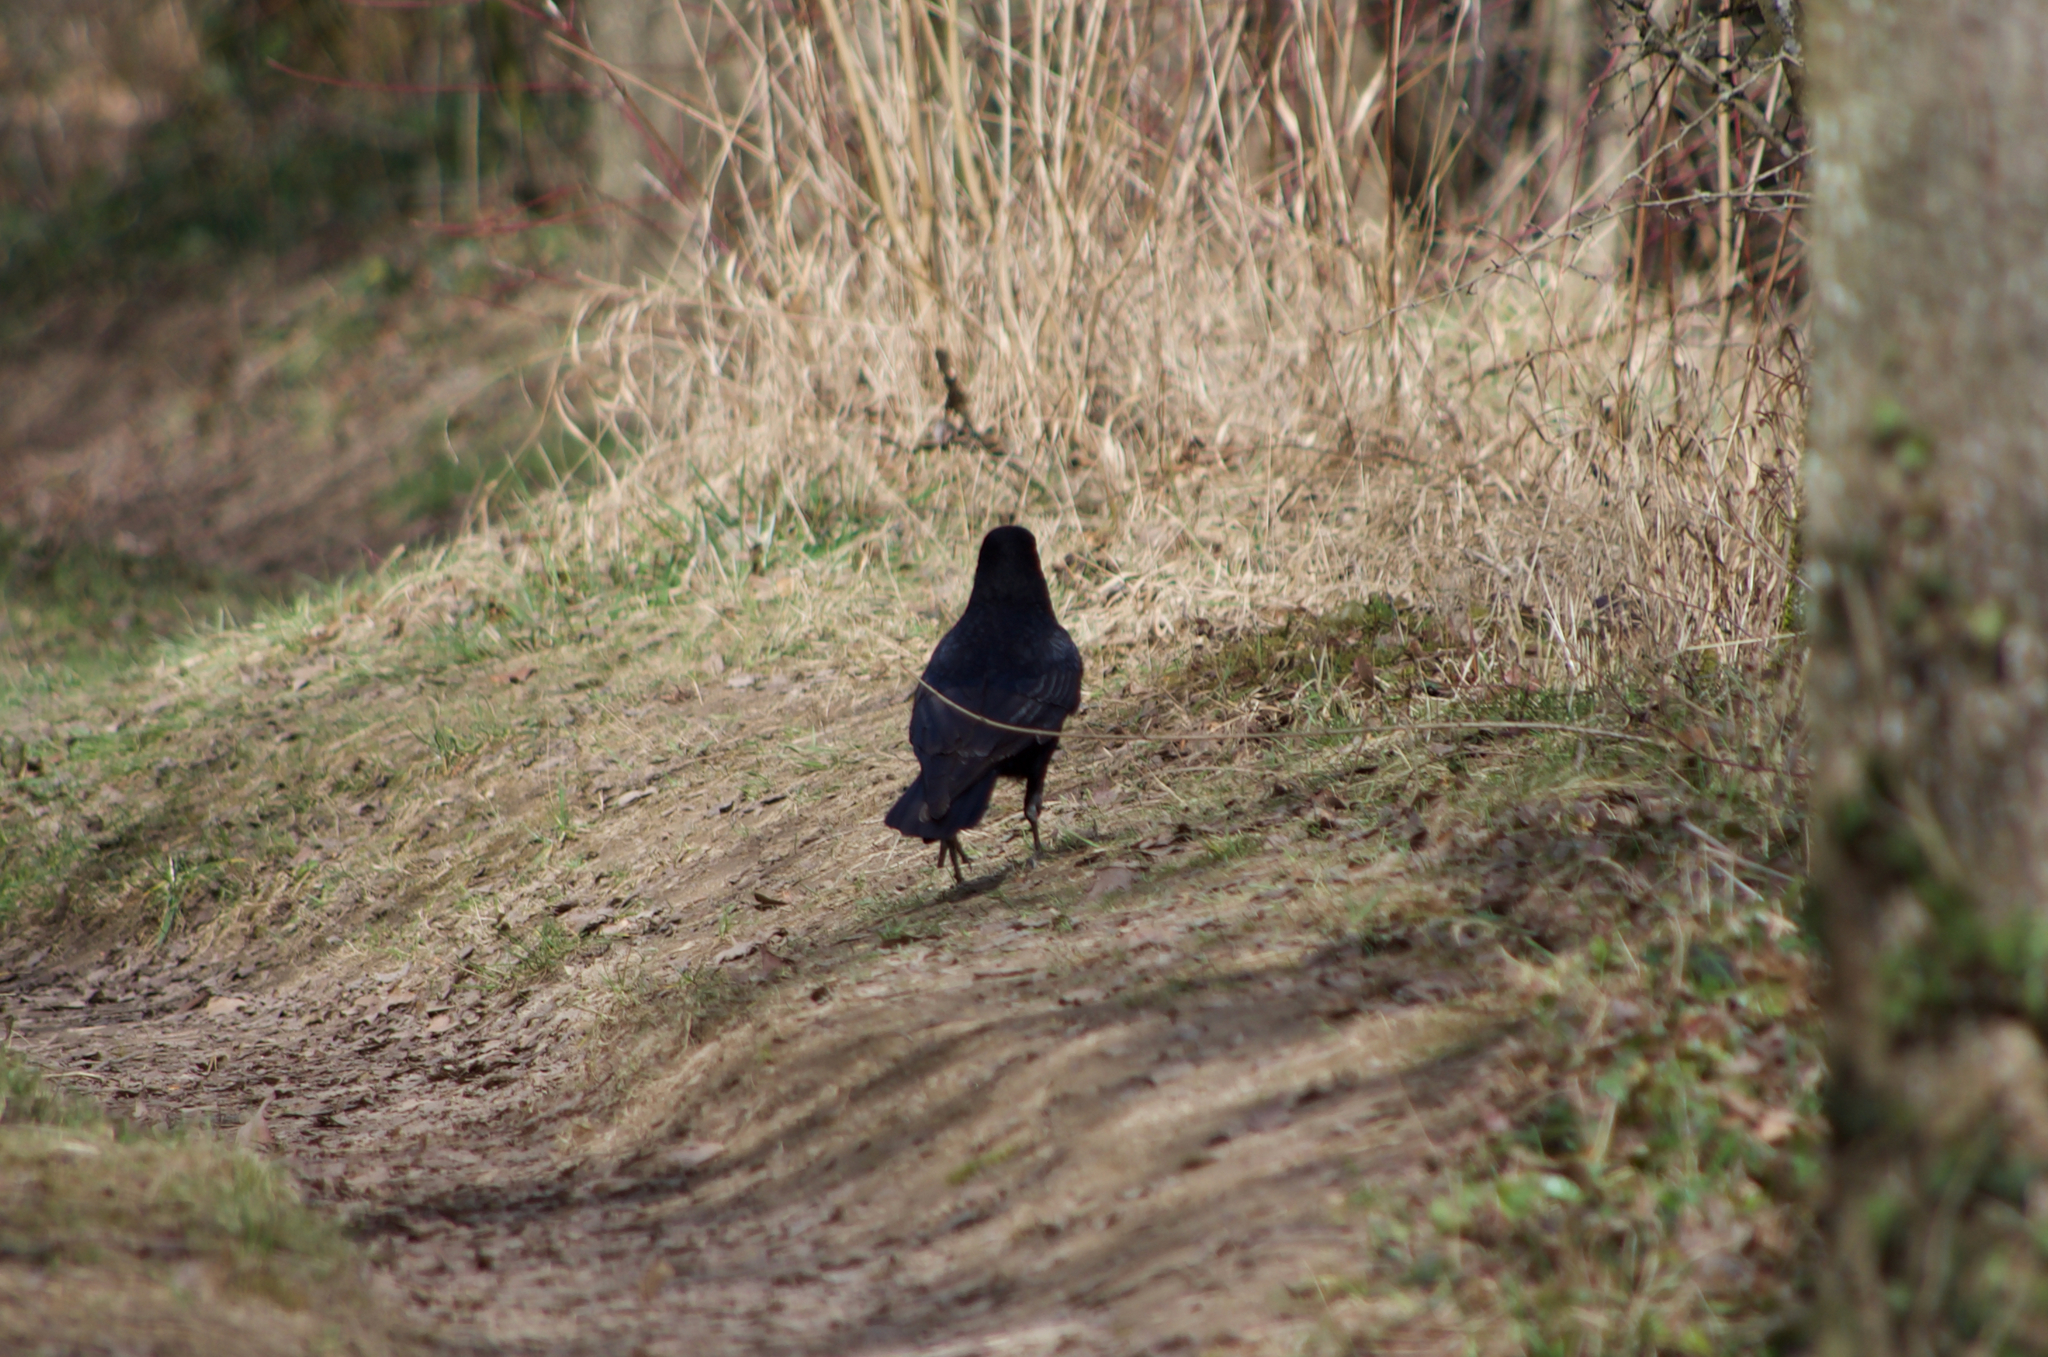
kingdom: Animalia
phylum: Chordata
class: Aves
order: Passeriformes
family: Corvidae
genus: Corvus
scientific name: Corvus corone
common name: Carrion crow
